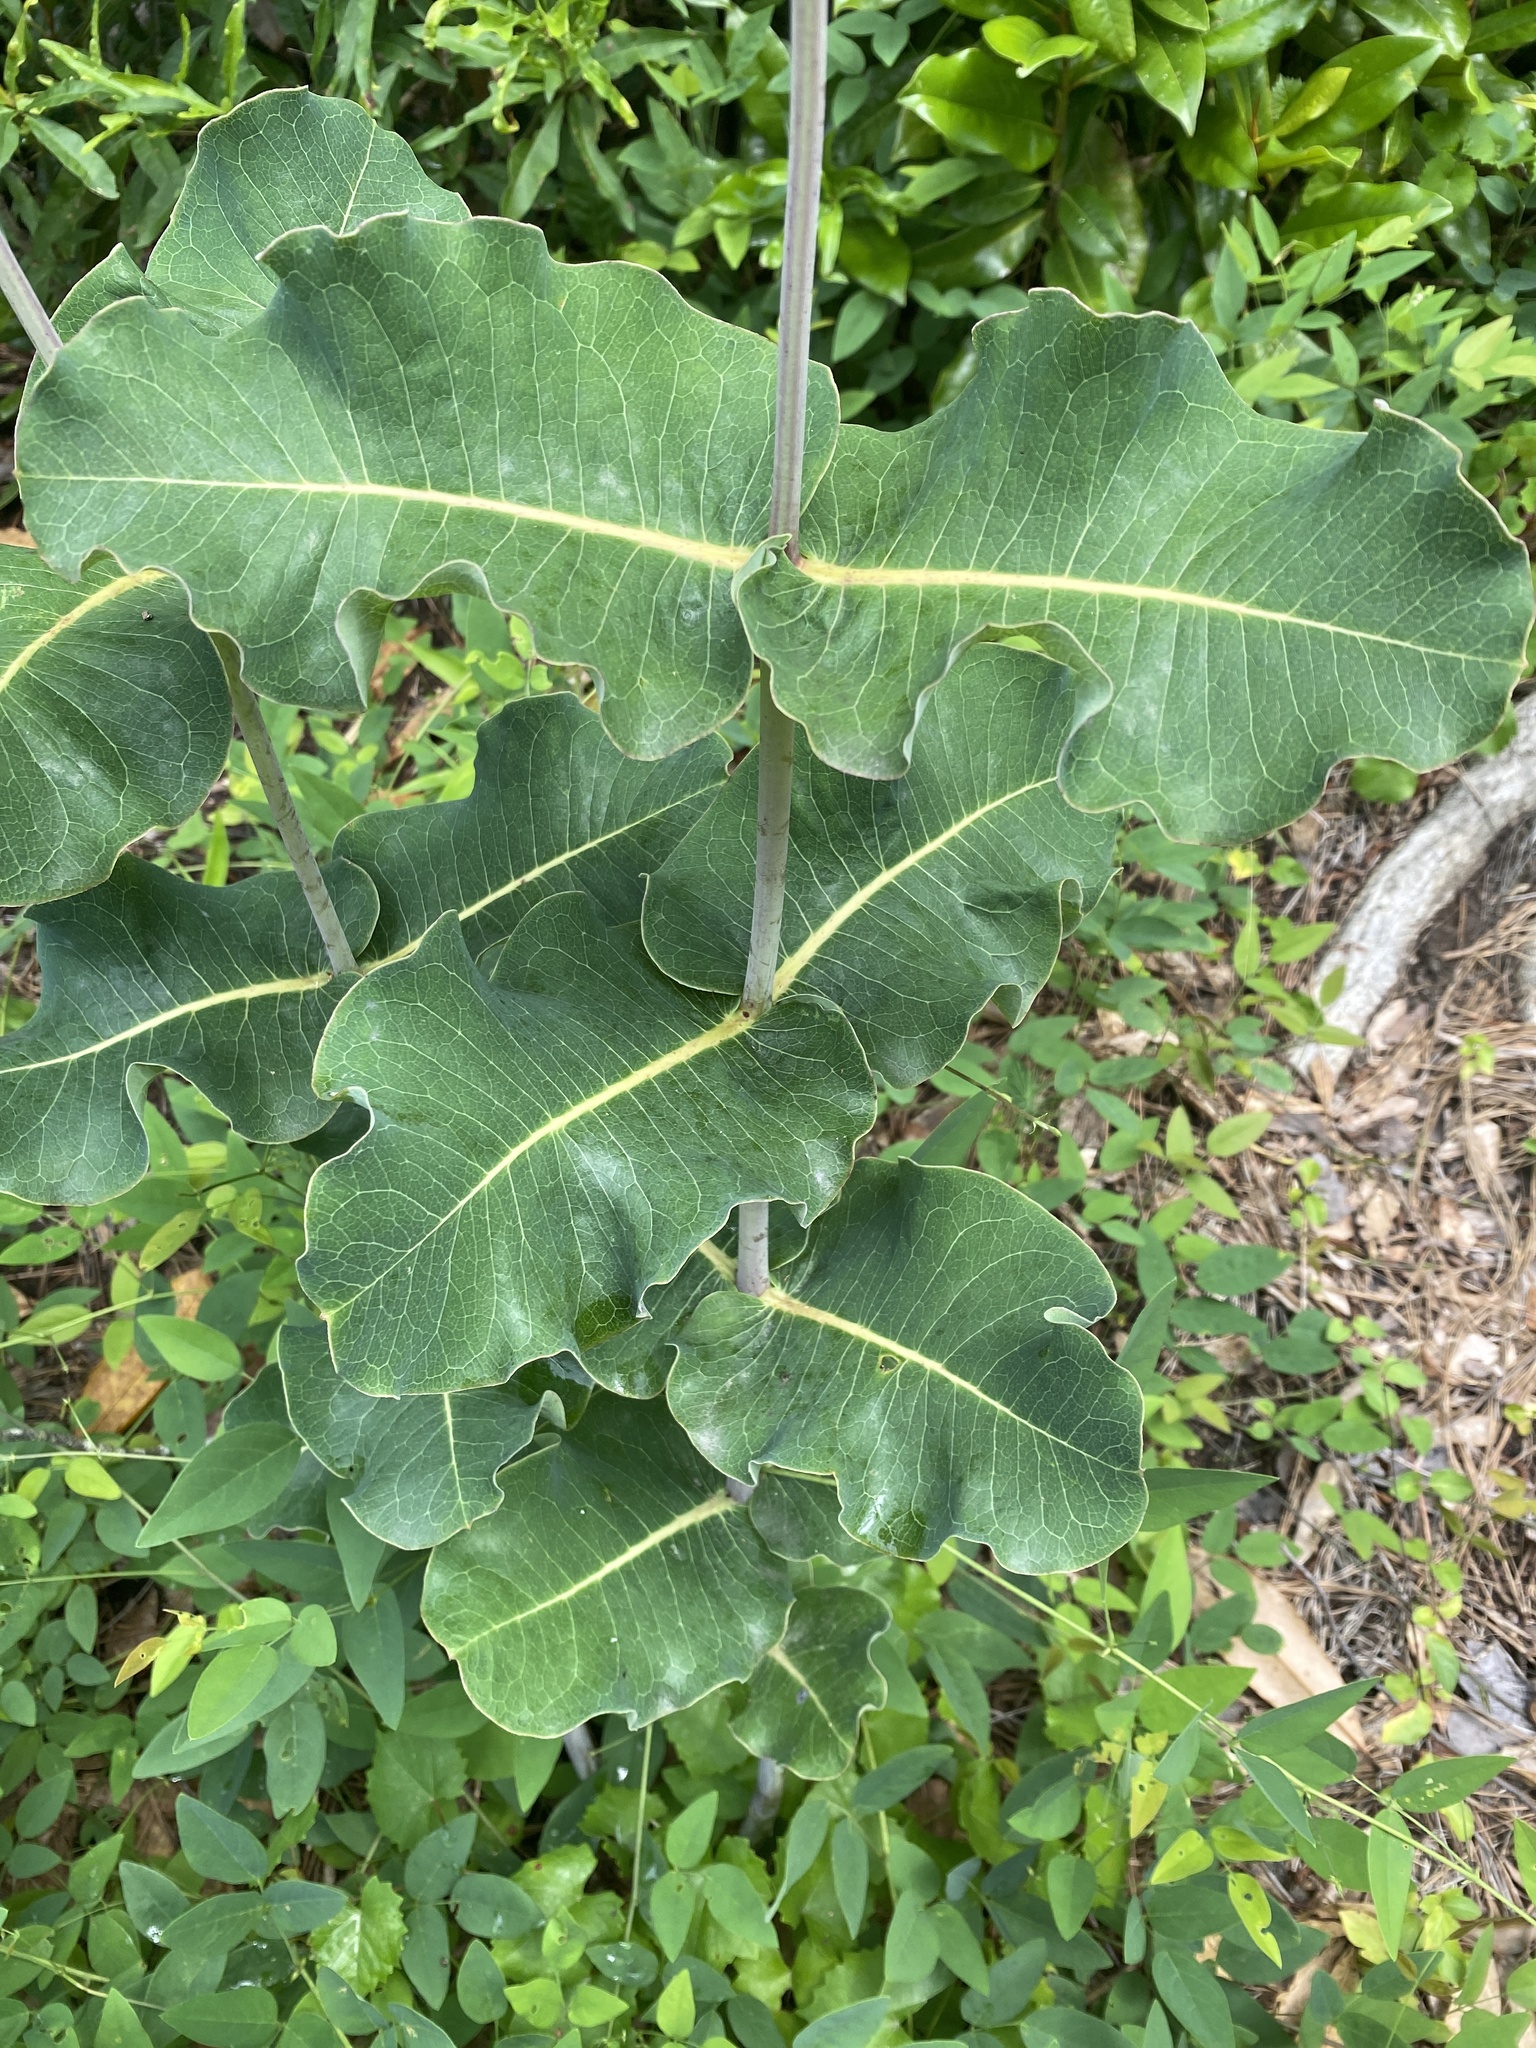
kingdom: Plantae
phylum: Tracheophyta
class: Magnoliopsida
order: Gentianales
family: Apocynaceae
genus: Asclepias
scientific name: Asclepias amplexicaulis
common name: Blunt-leaf milkweed
